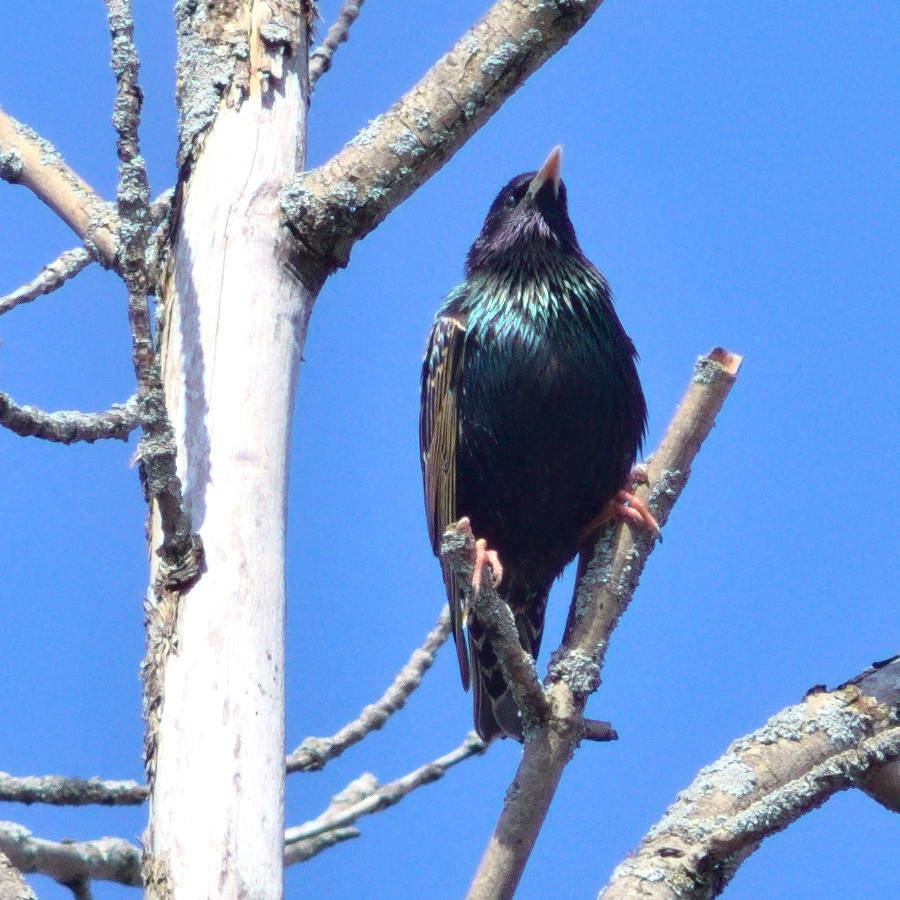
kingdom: Animalia
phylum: Chordata
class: Aves
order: Passeriformes
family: Sturnidae
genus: Sturnus
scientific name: Sturnus vulgaris
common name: Common starling
